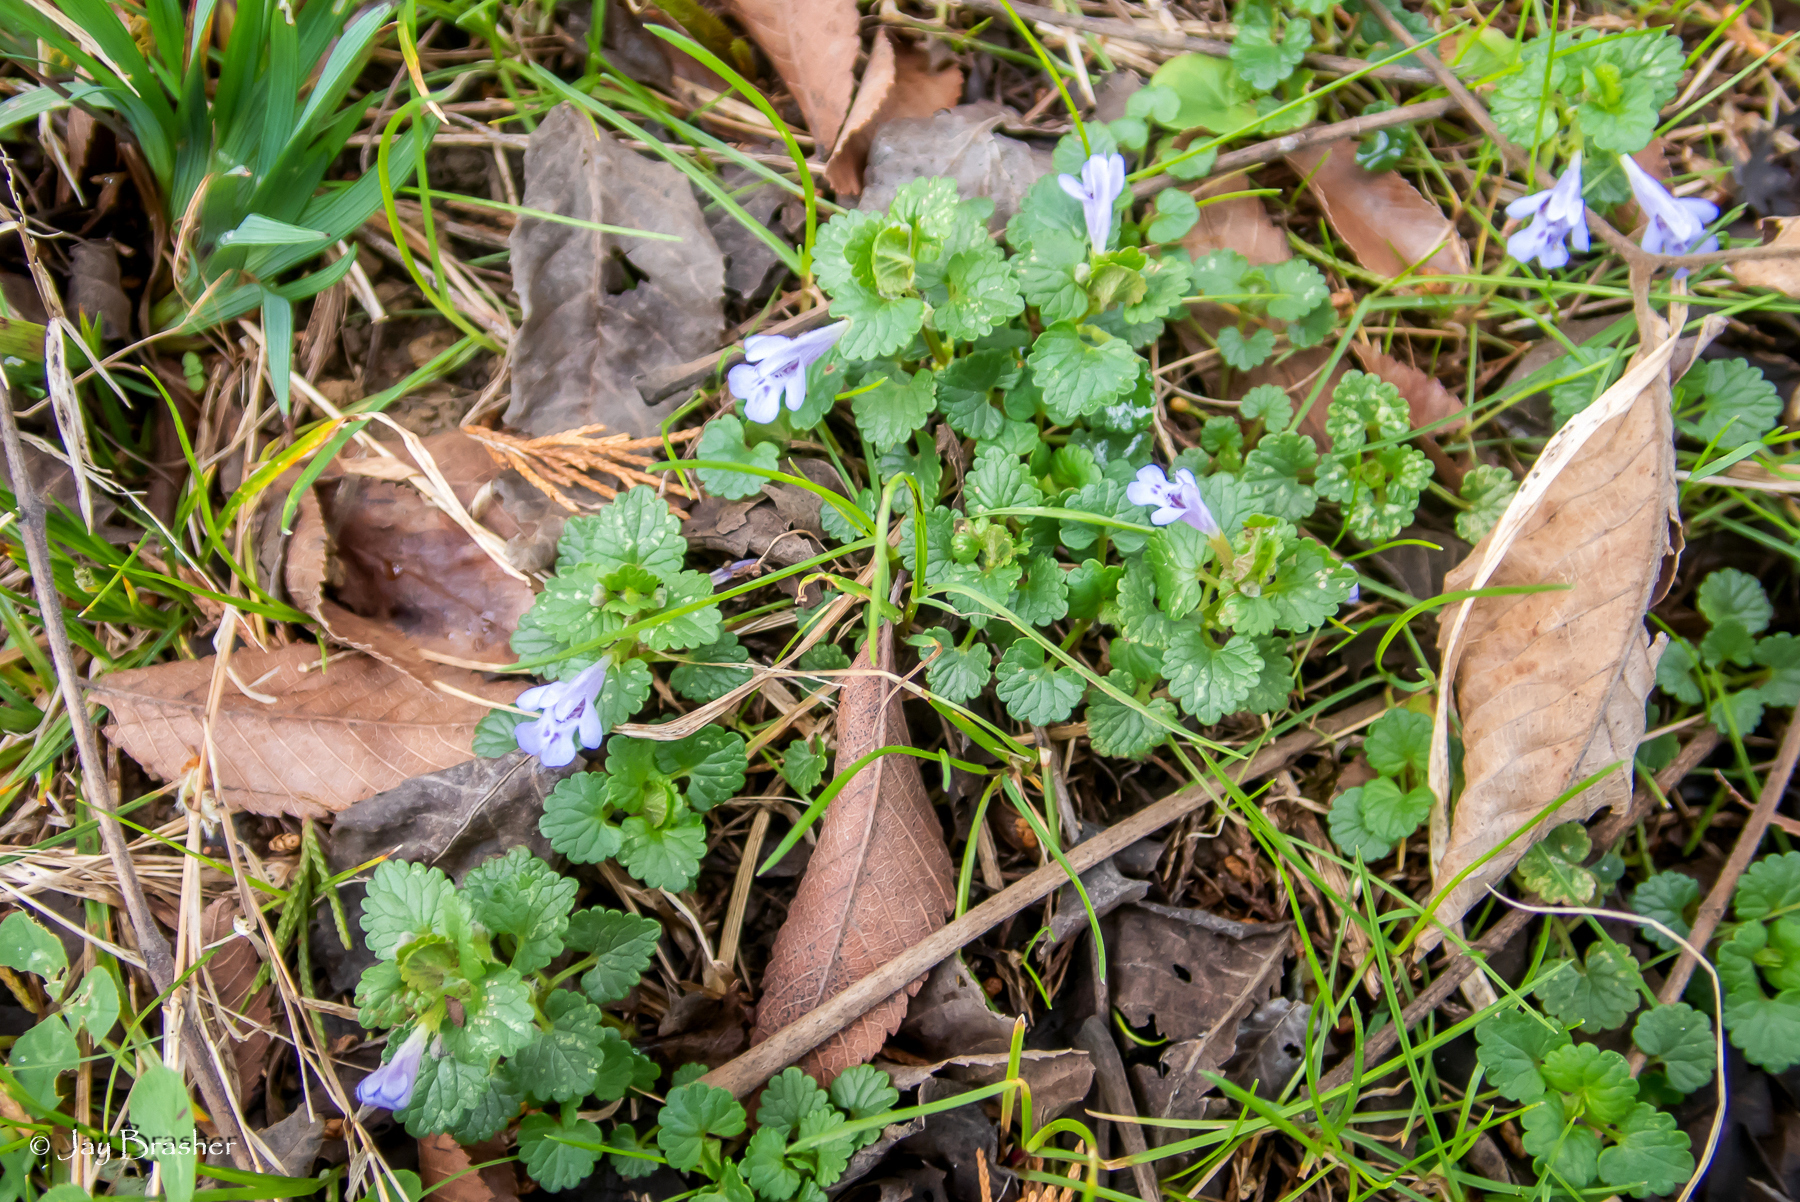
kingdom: Plantae
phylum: Tracheophyta
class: Magnoliopsida
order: Lamiales
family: Lamiaceae
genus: Glechoma
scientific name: Glechoma hederacea
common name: Ground ivy
